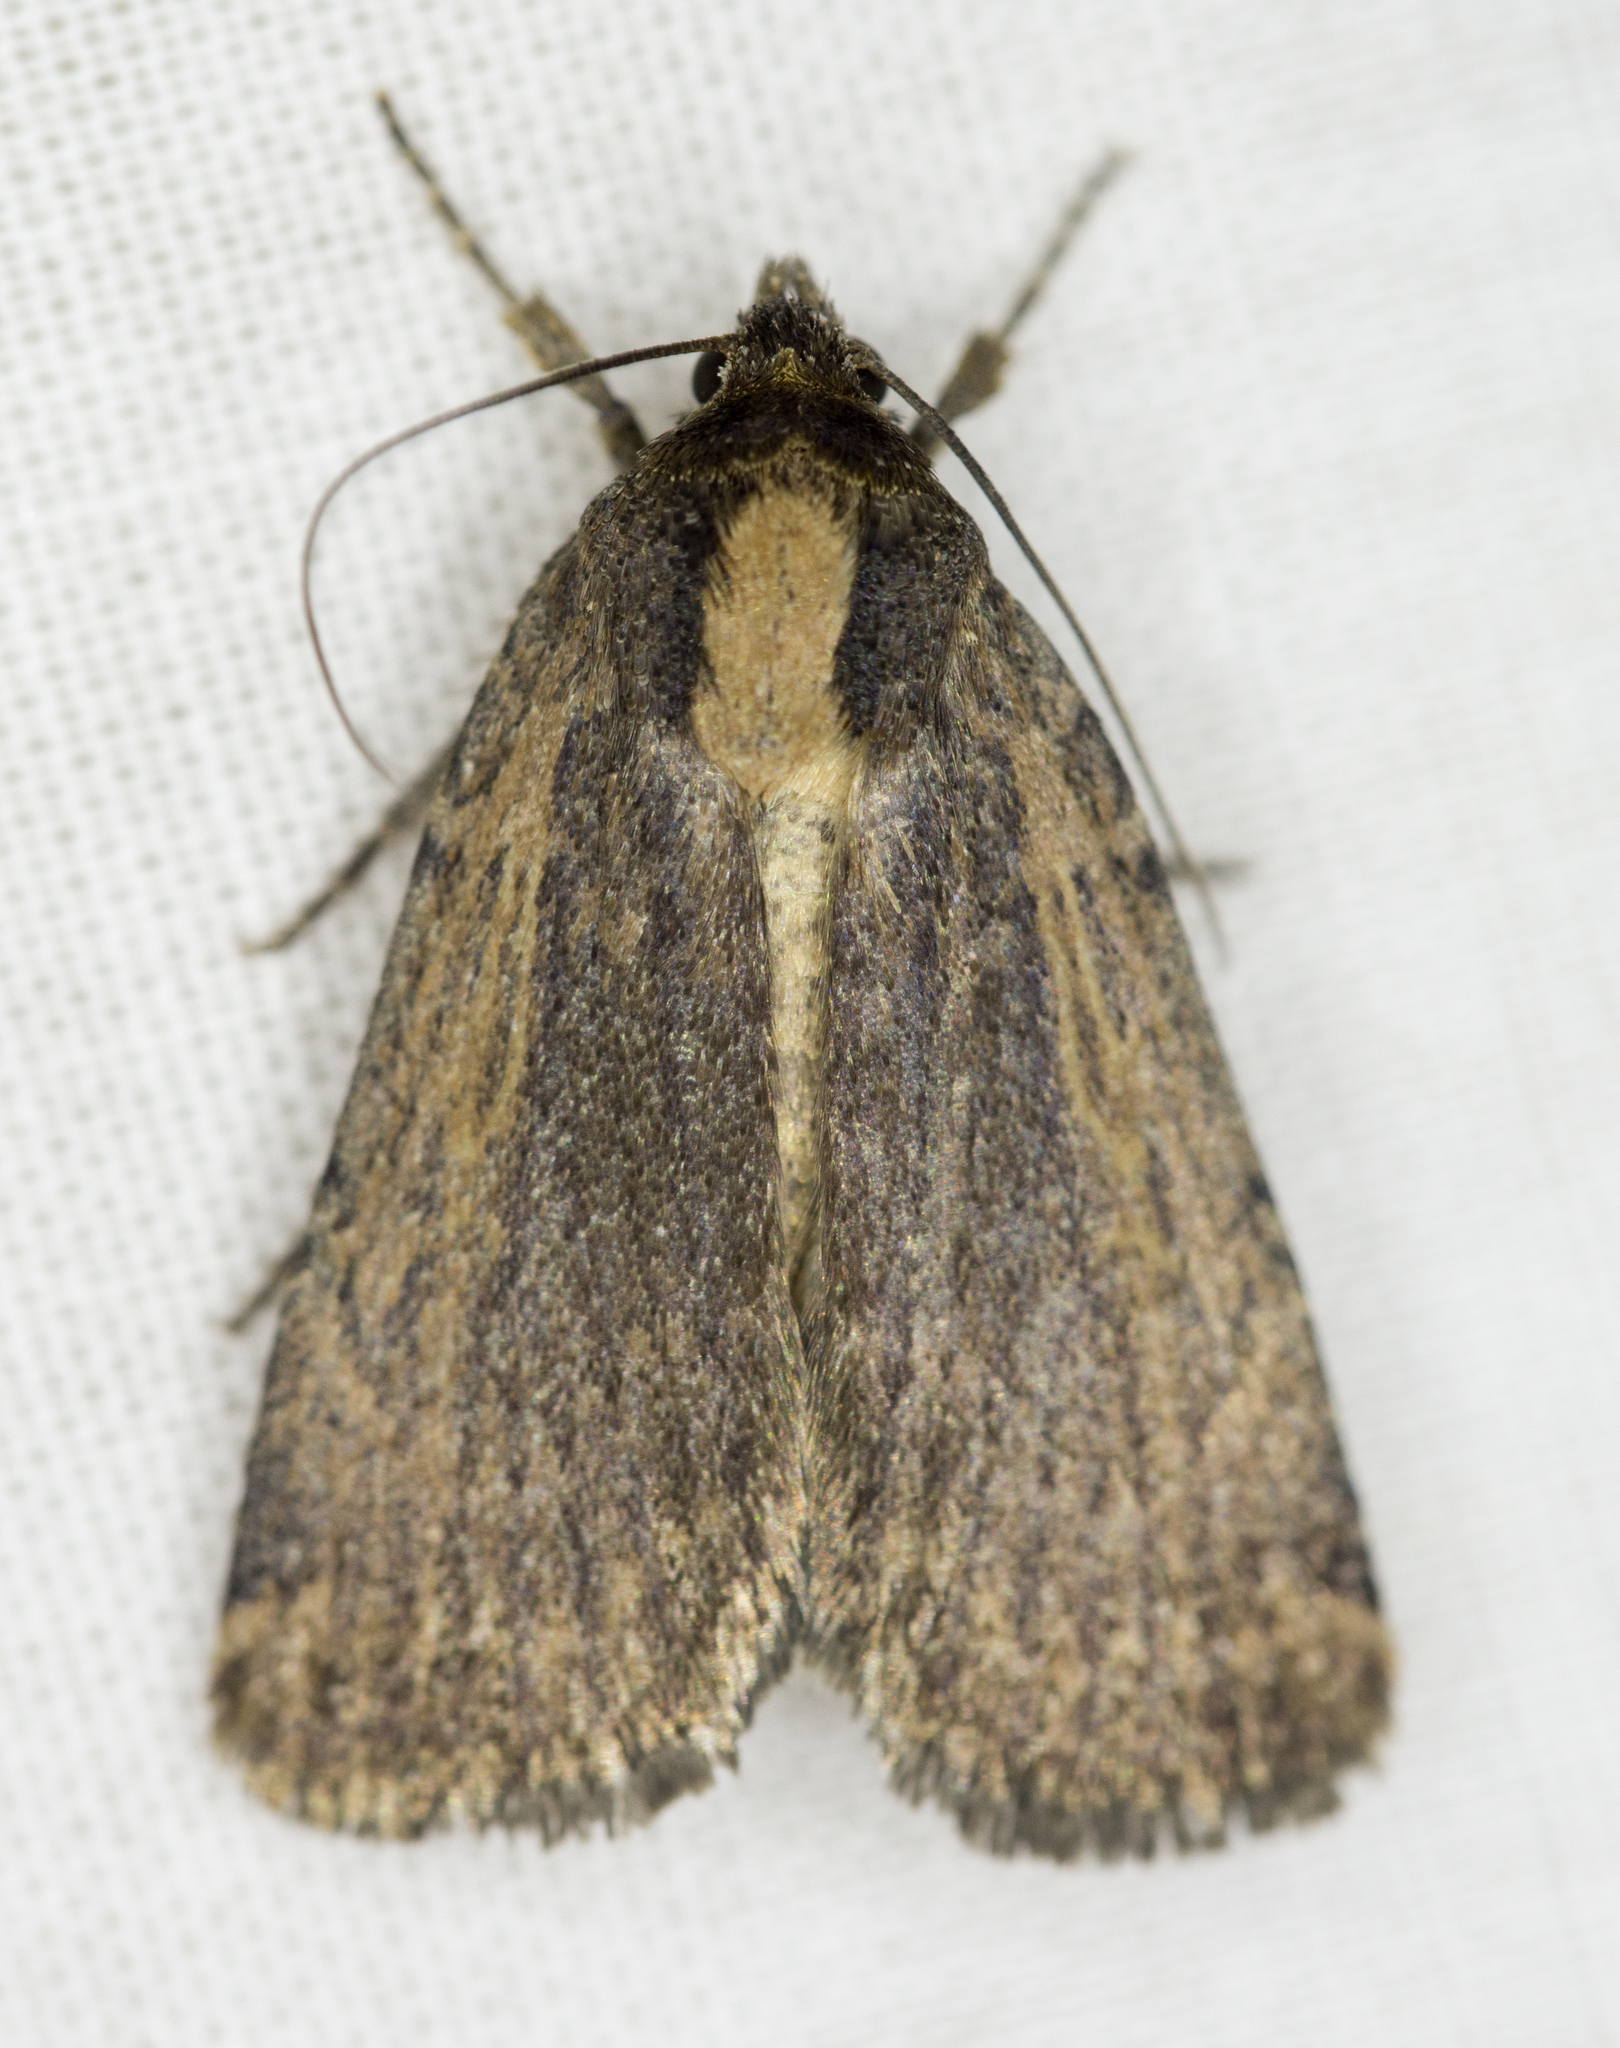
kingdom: Animalia
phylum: Arthropoda
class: Insecta
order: Lepidoptera
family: Noctuidae
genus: Abagrotis
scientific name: Abagrotis nanalis
